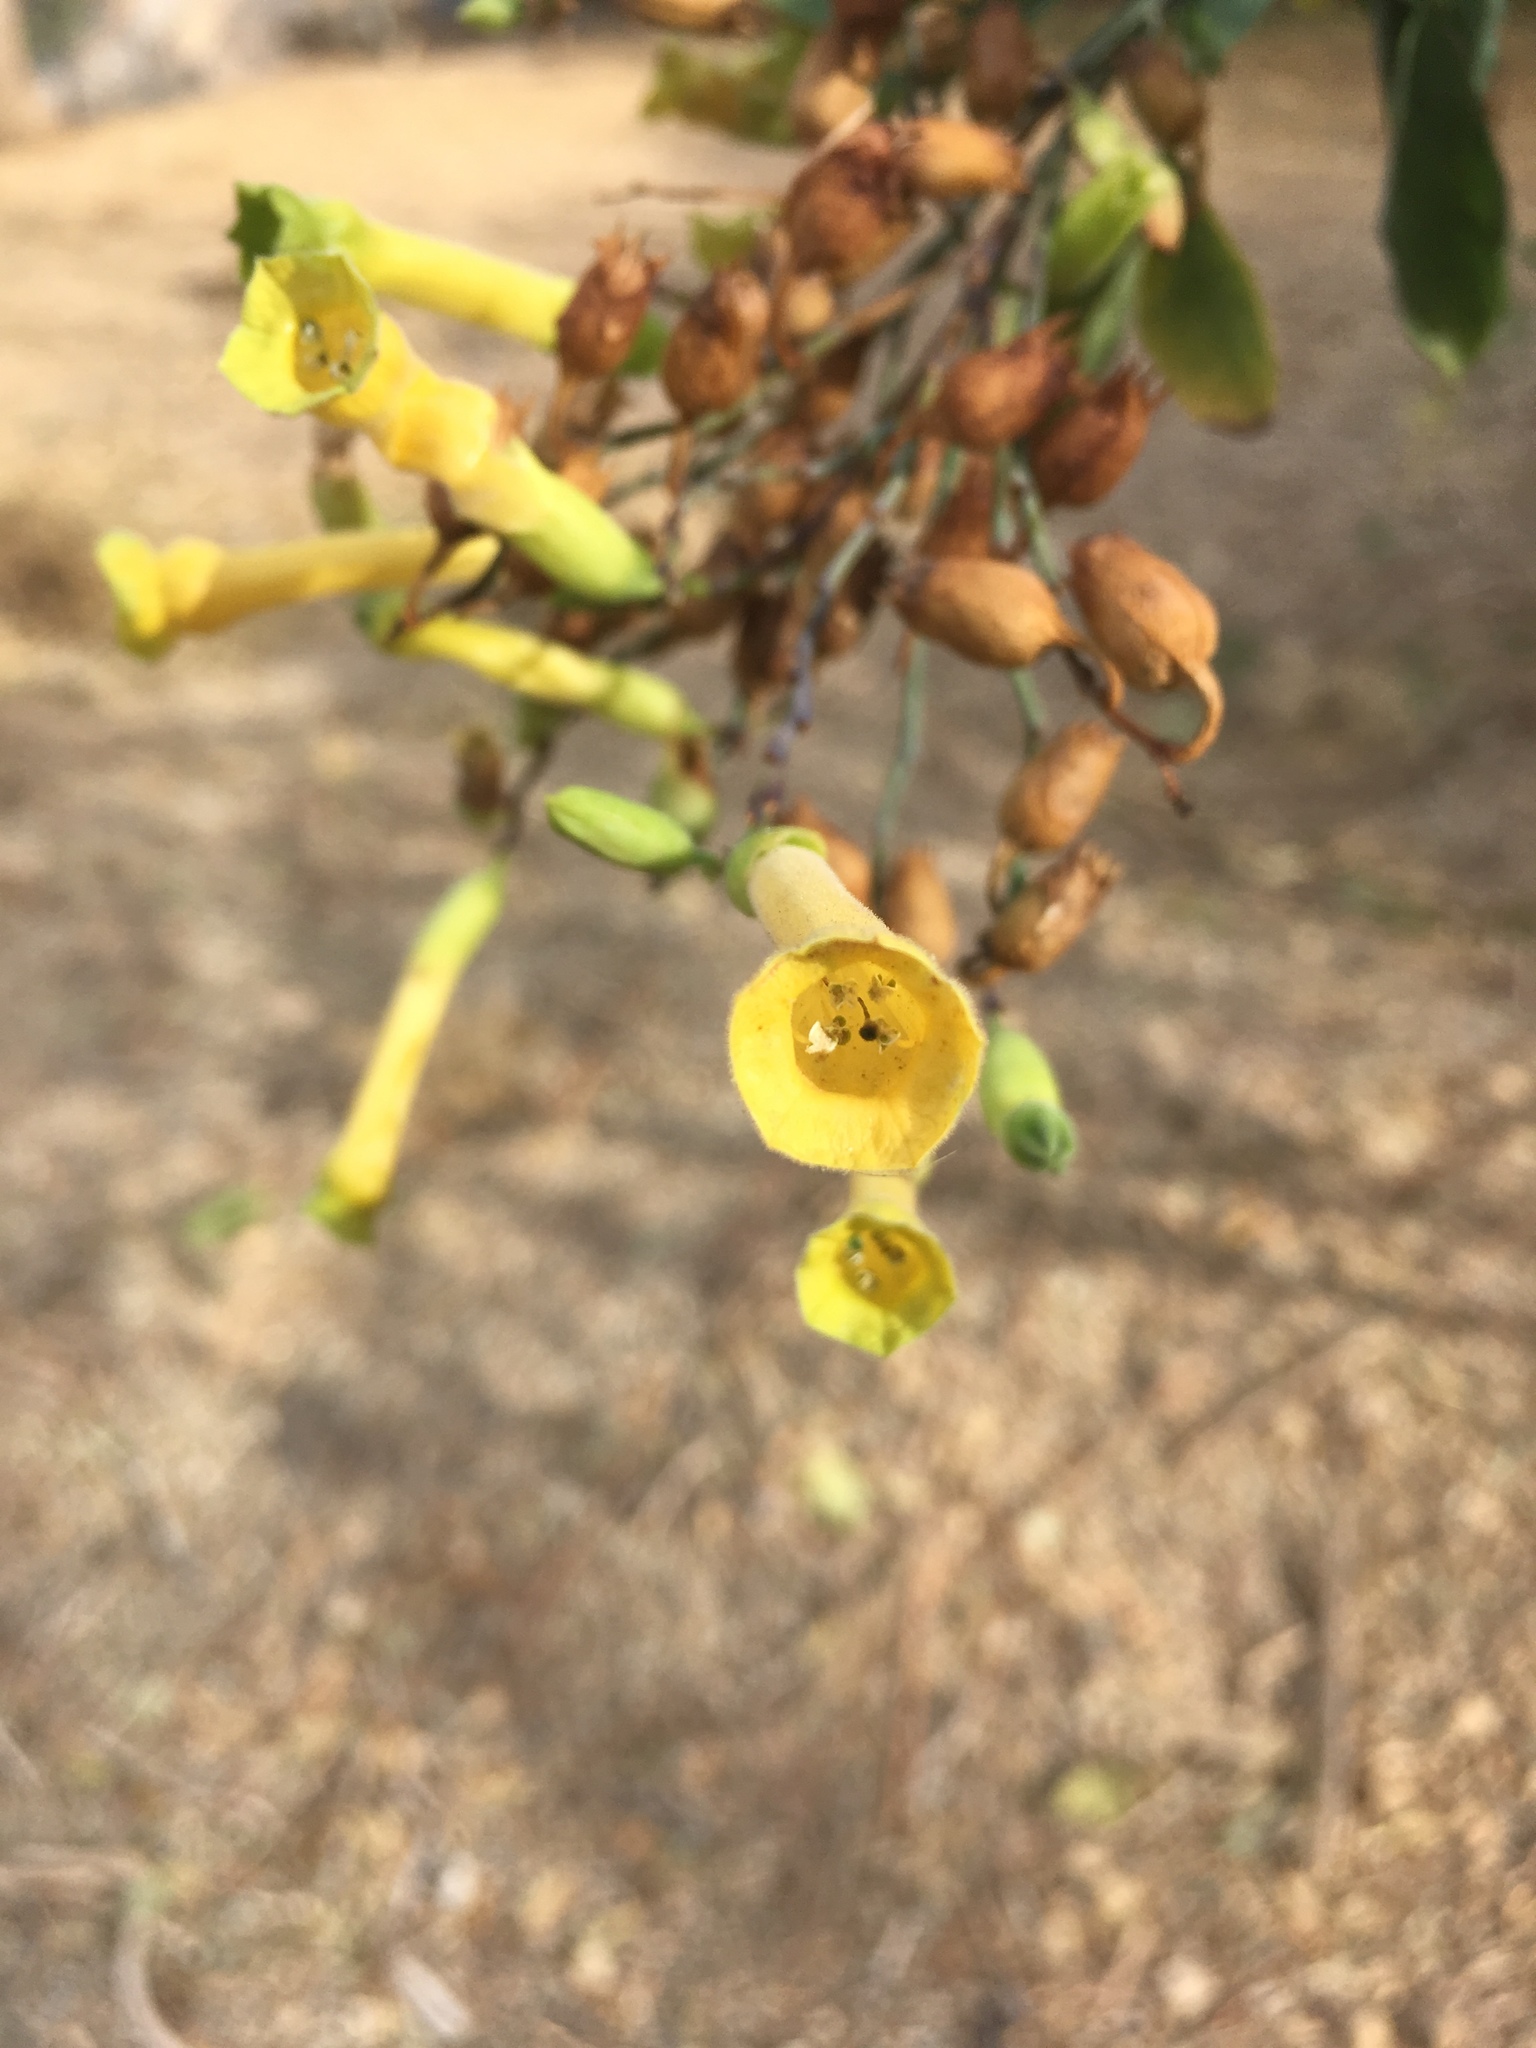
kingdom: Plantae
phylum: Tracheophyta
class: Magnoliopsida
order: Solanales
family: Solanaceae
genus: Nicotiana
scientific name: Nicotiana glauca
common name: Tree tobacco
